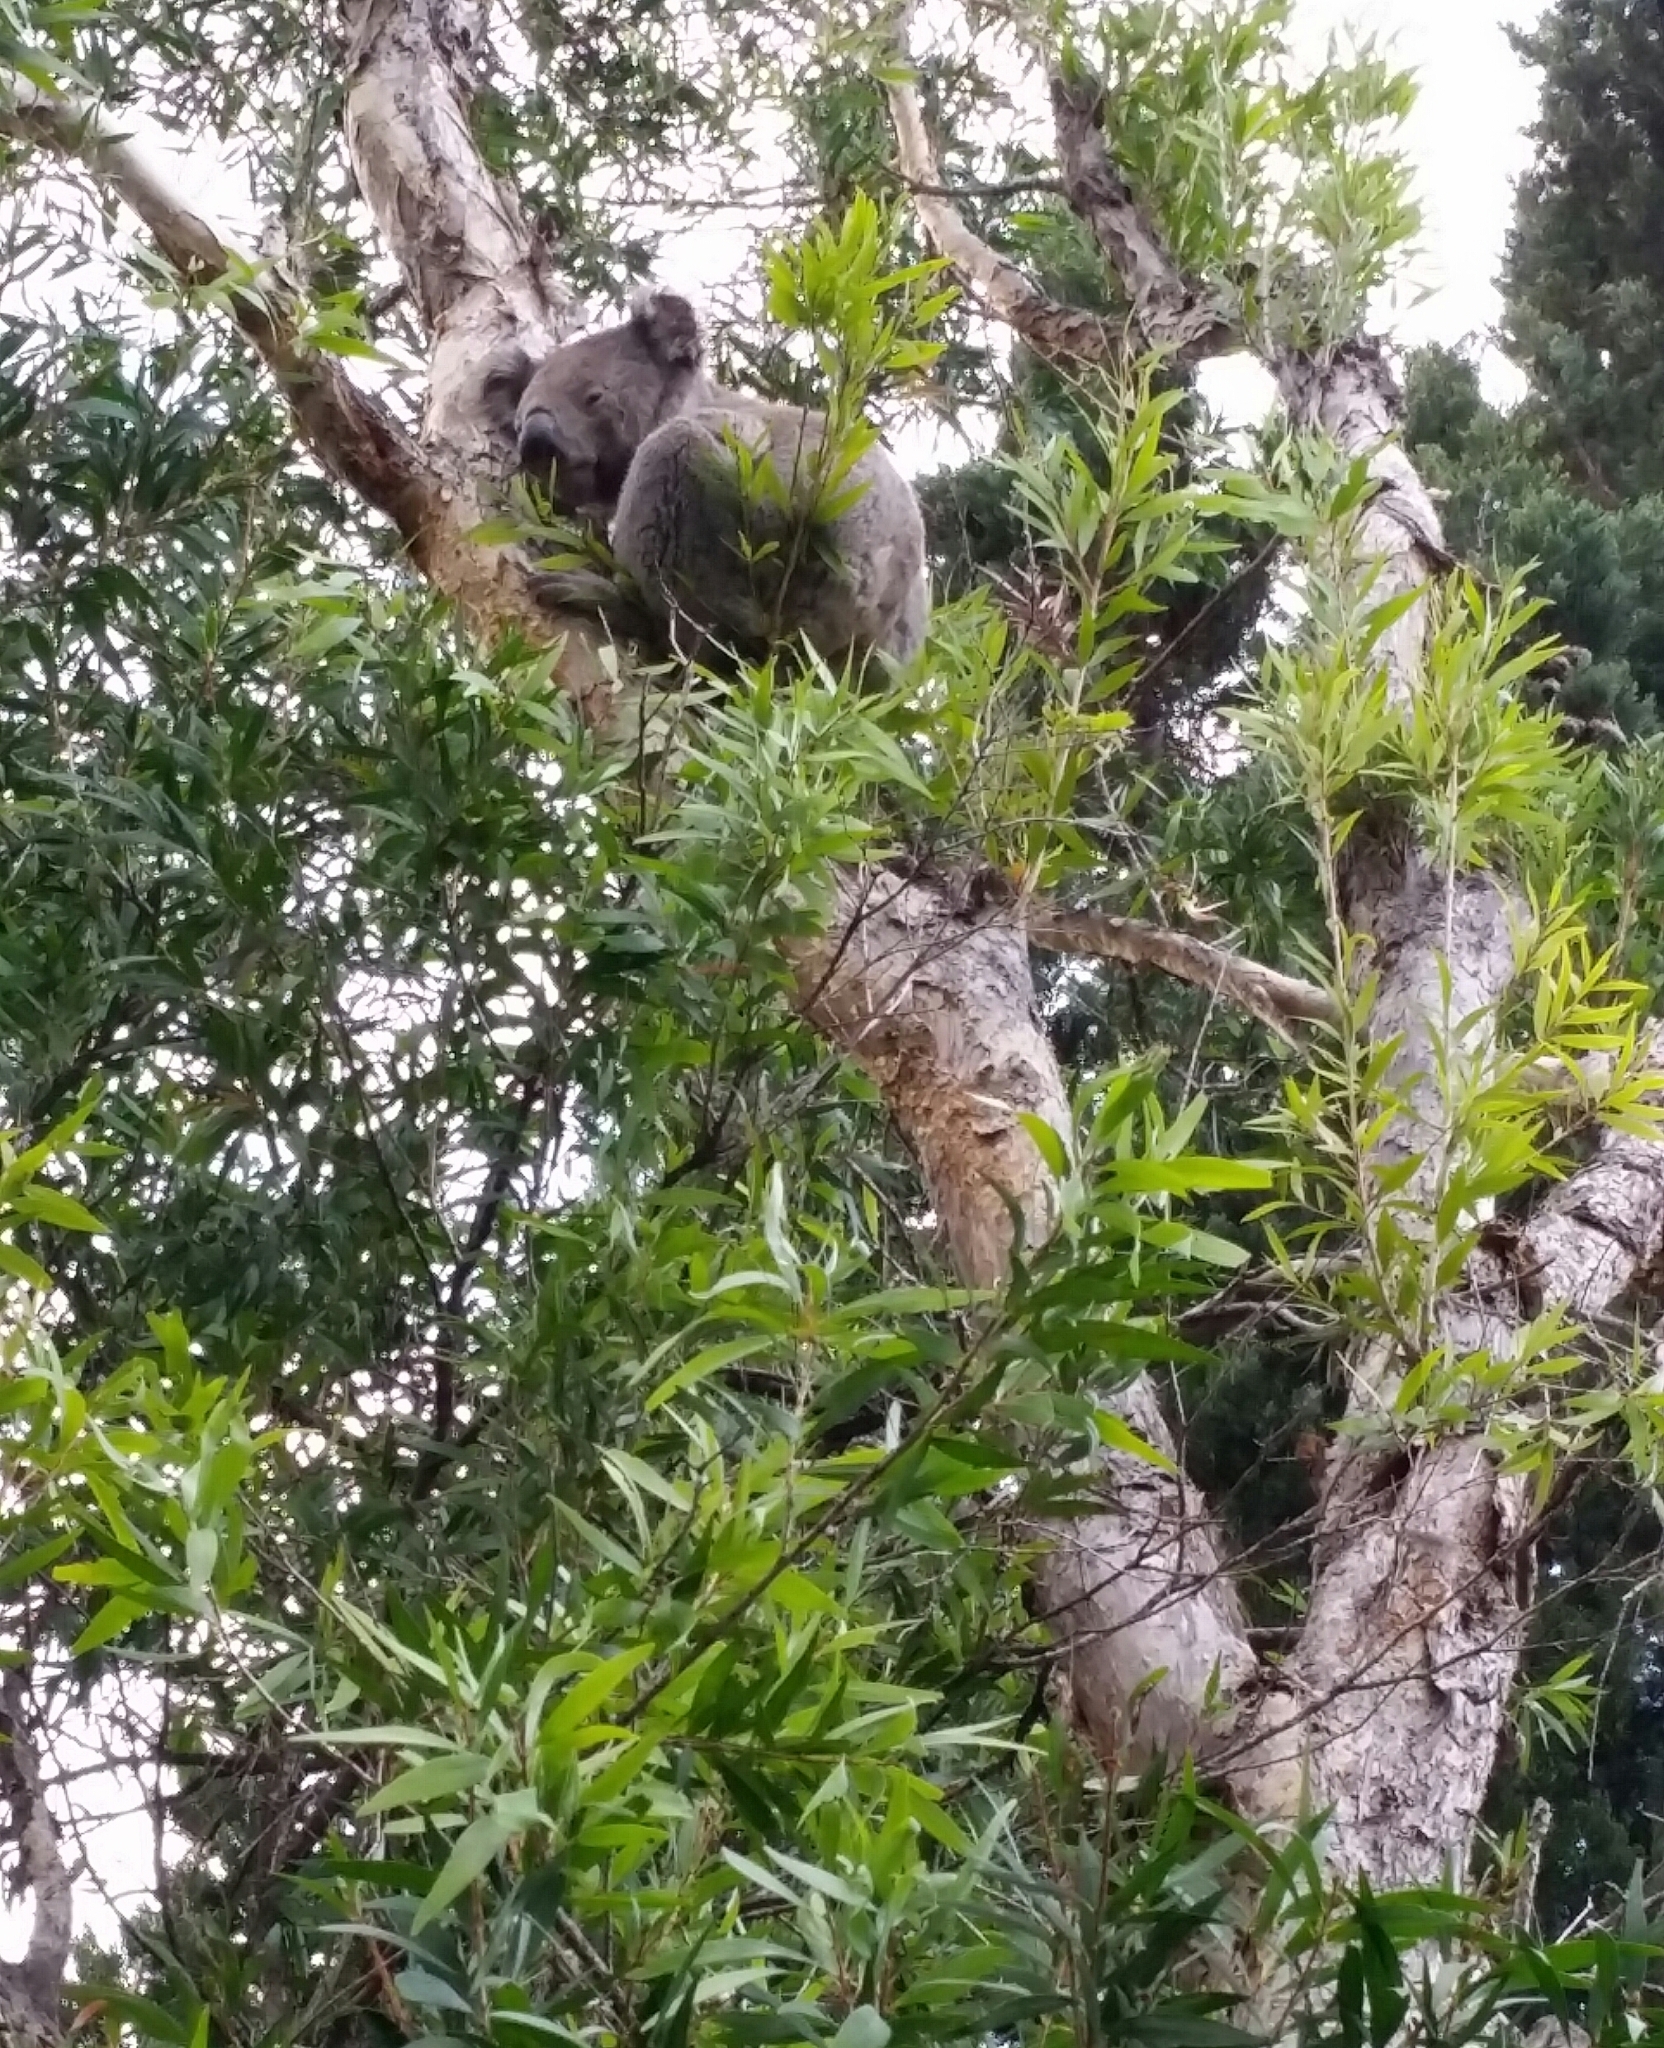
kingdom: Animalia
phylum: Chordata
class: Mammalia
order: Diprotodontia
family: Phascolarctidae
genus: Phascolarctos
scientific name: Phascolarctos cinereus
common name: Koala
